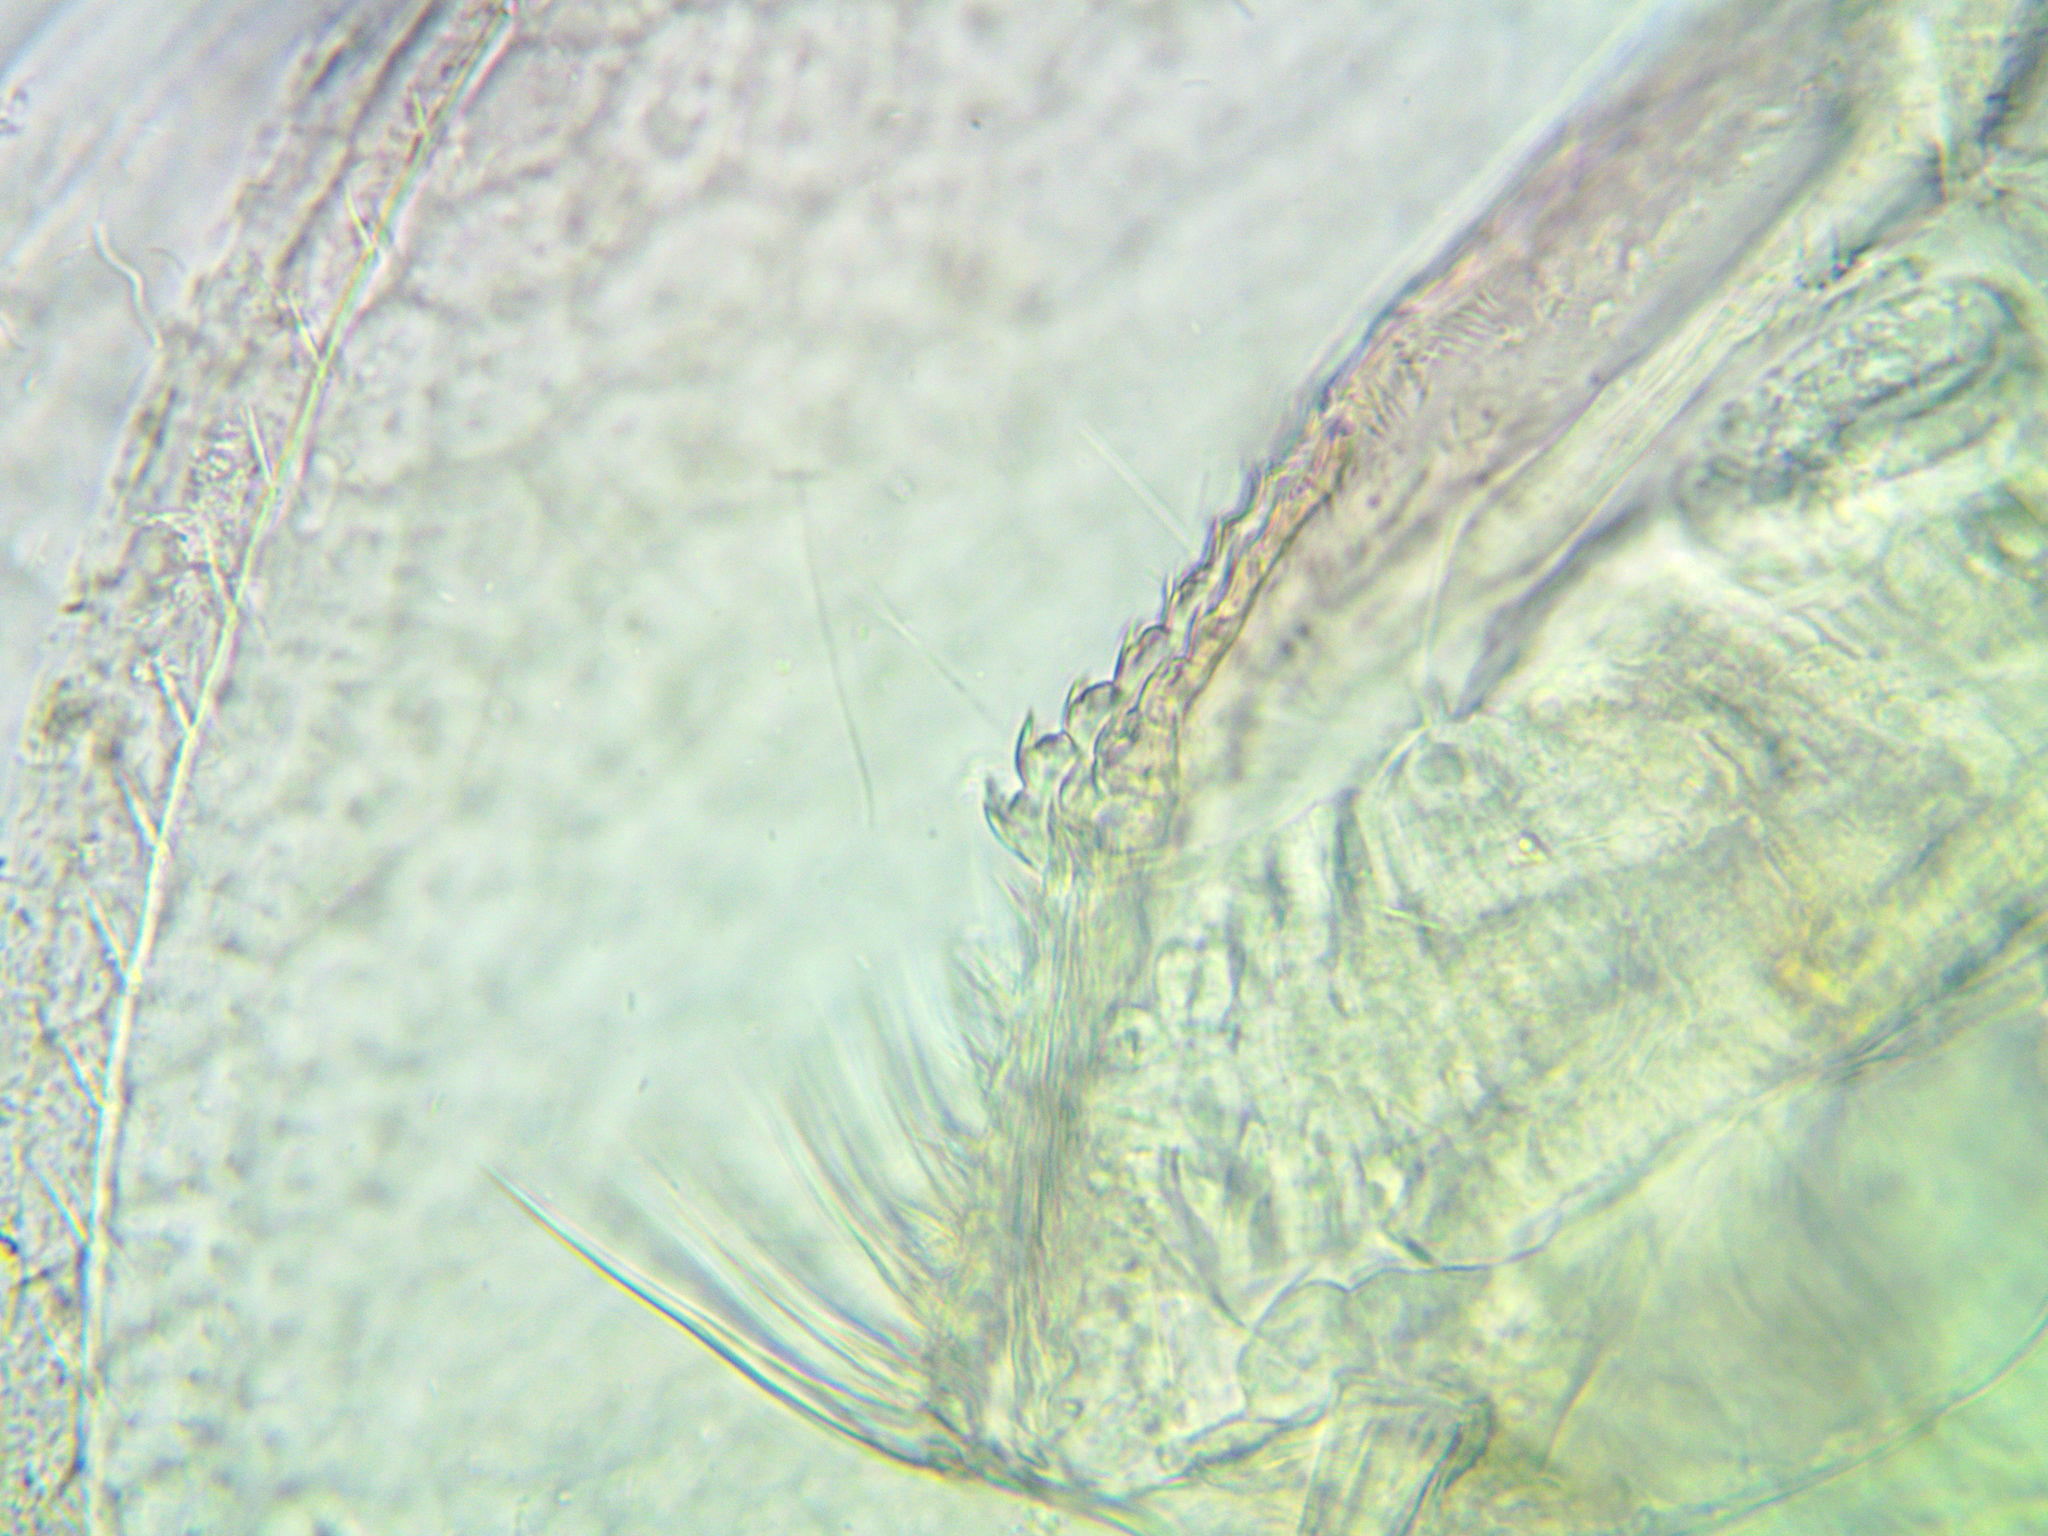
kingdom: Animalia
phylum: Arthropoda
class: Branchiopoda
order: Diplostraca
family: Daphniidae
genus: Ceriodaphnia
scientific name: Ceriodaphnia megops
